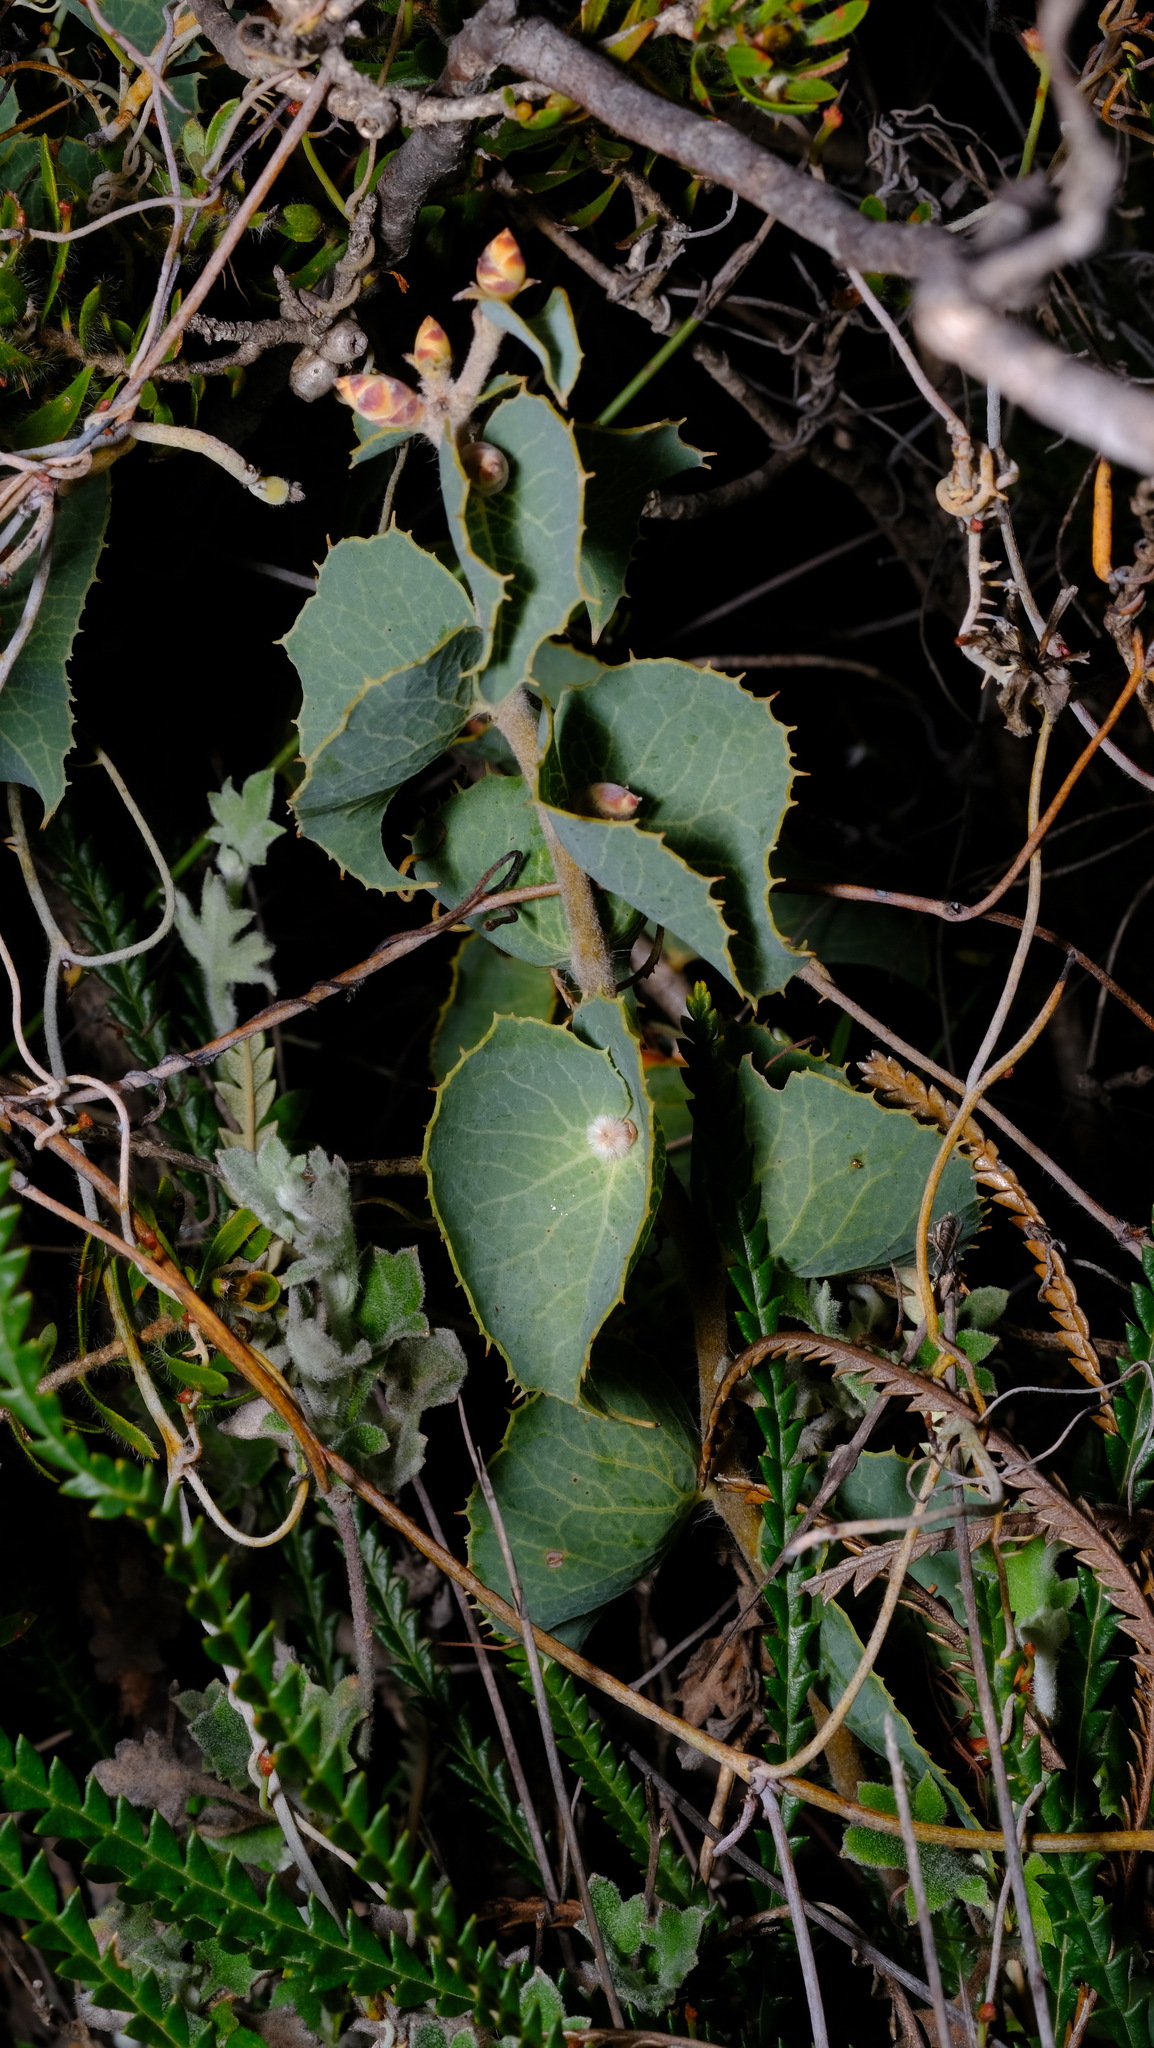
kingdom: Plantae
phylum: Tracheophyta
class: Magnoliopsida
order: Proteales
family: Proteaceae
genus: Hakea
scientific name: Hakea conchifolia
